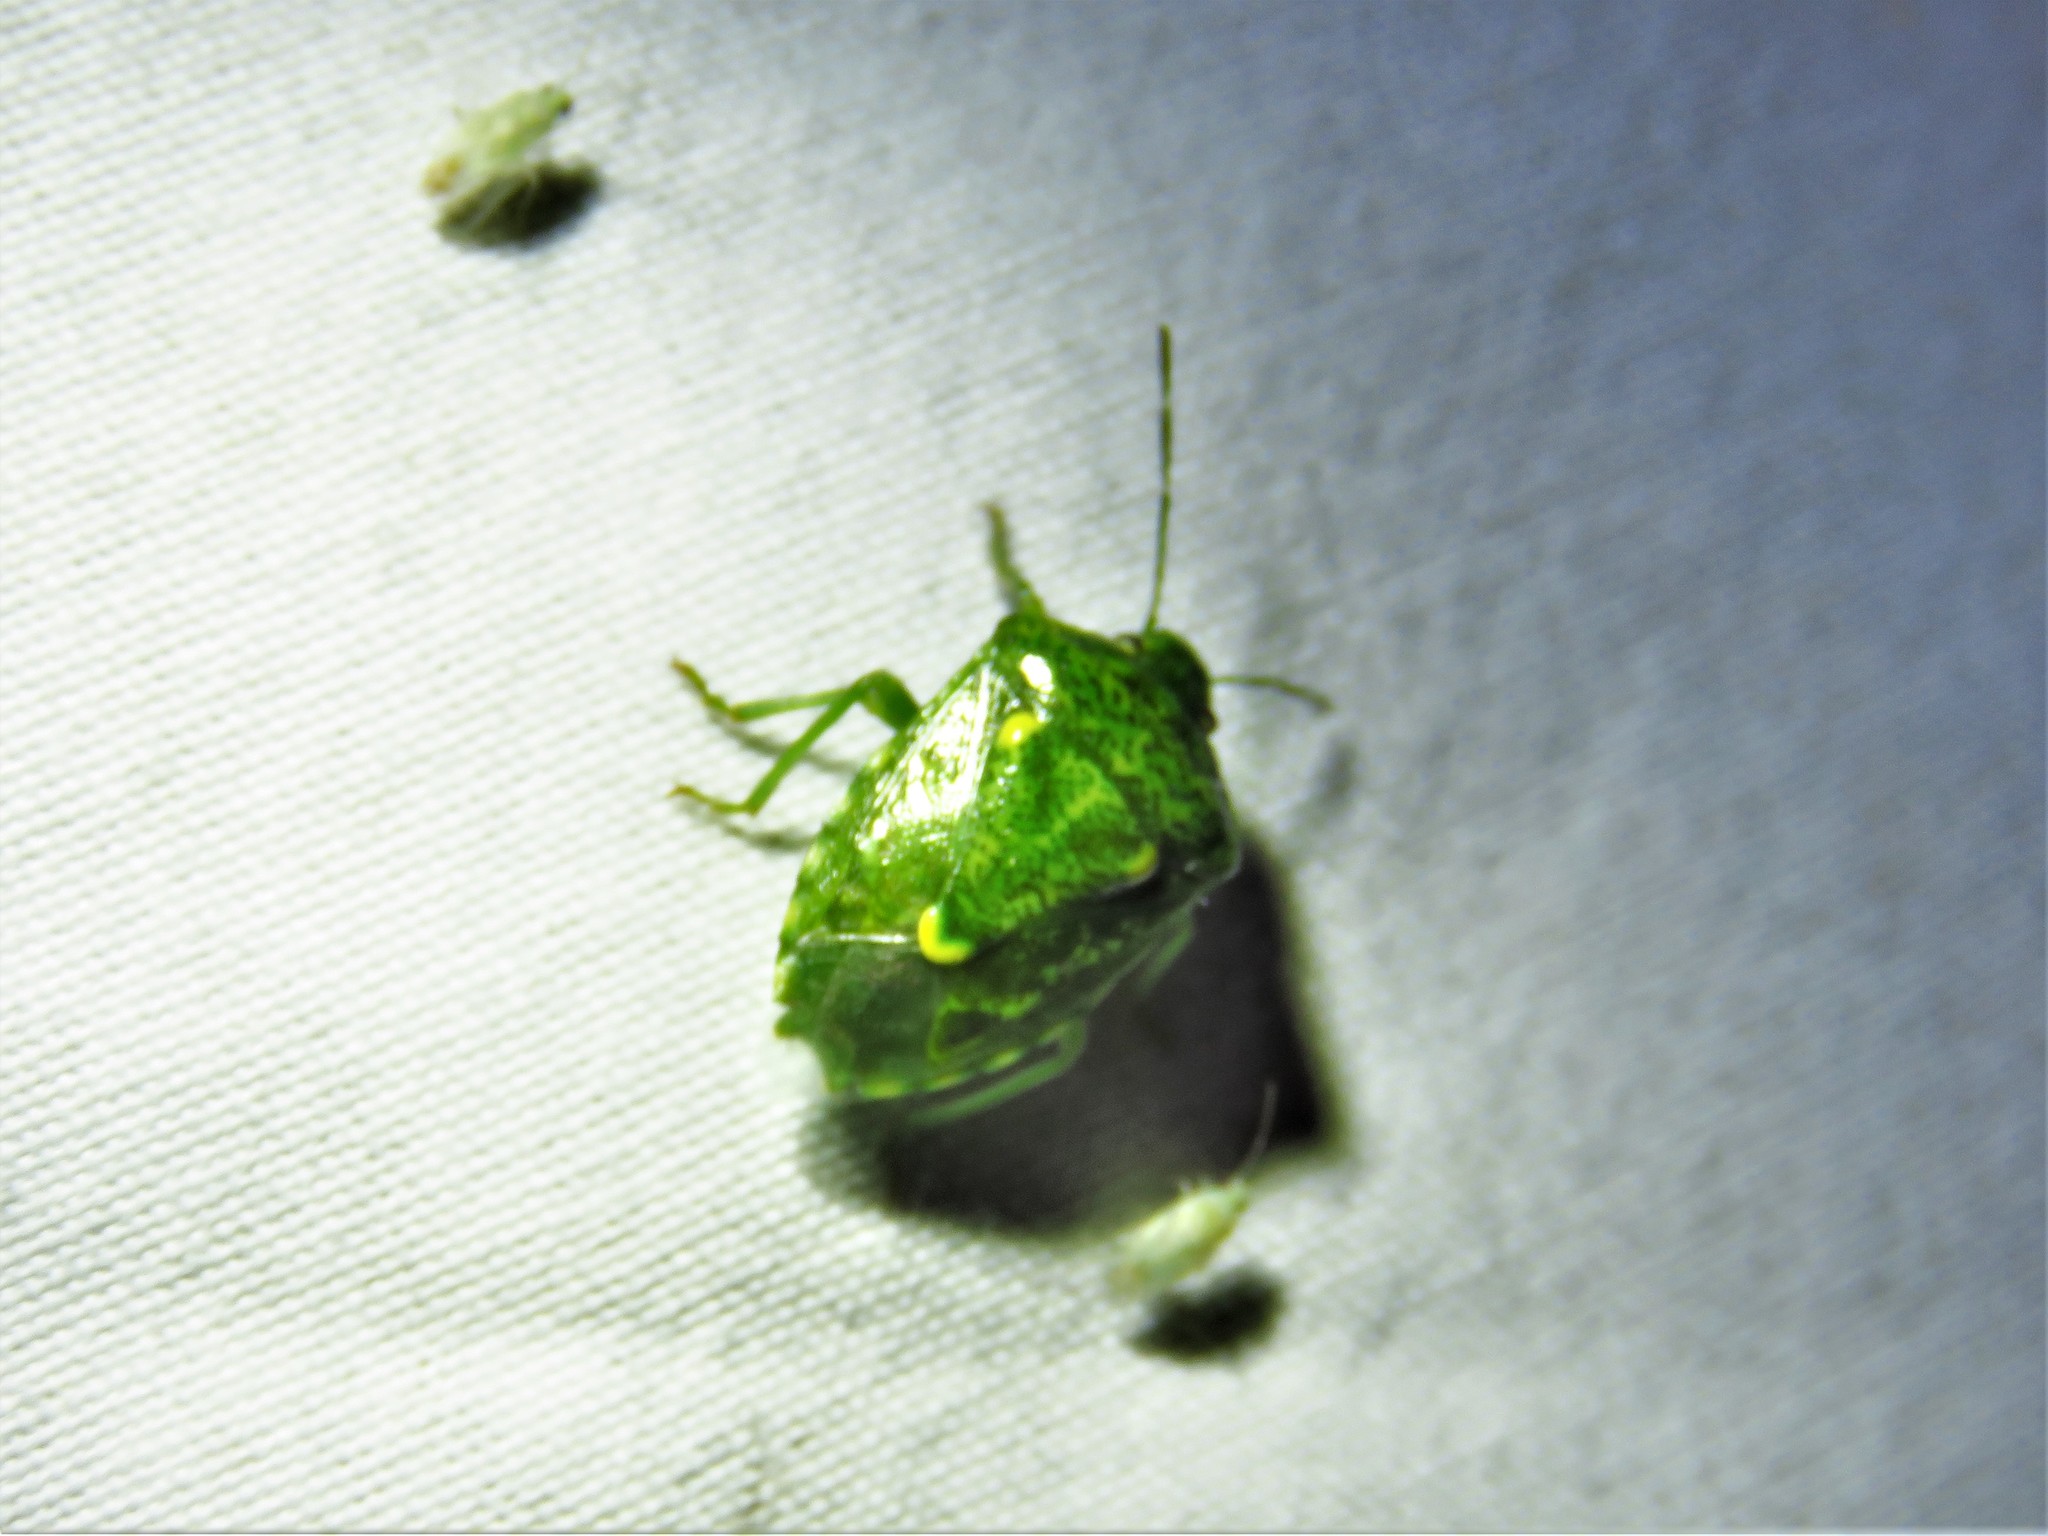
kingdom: Animalia
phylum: Arthropoda
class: Insecta
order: Hemiptera
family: Pentatomidae
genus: Banasa
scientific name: Banasa euchlora
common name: Cedar berry bug
